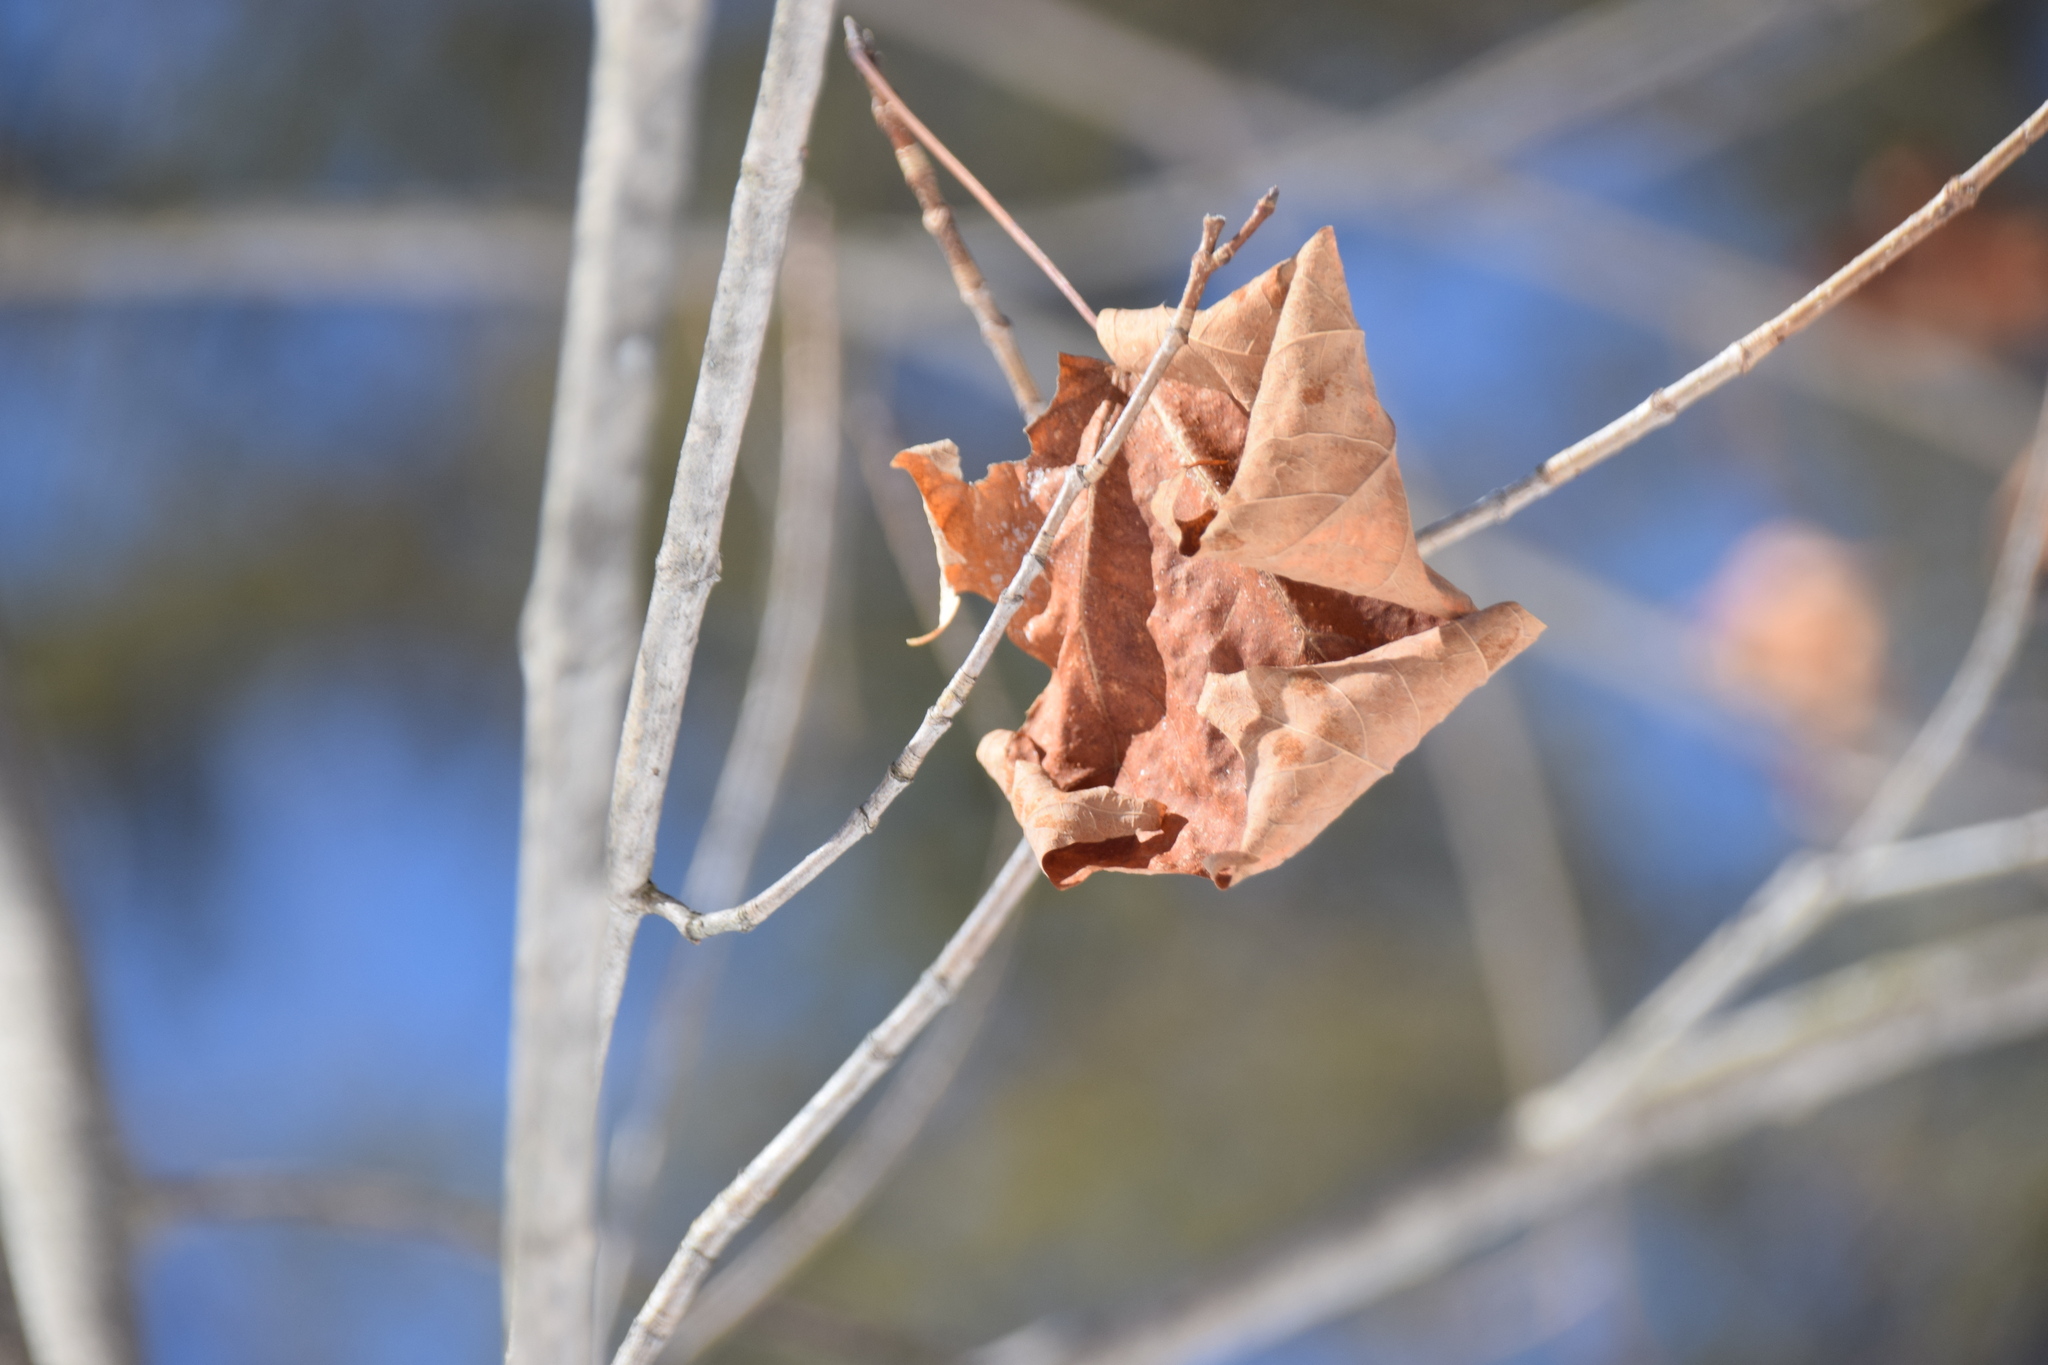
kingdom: Plantae
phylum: Tracheophyta
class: Magnoliopsida
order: Sapindales
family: Sapindaceae
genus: Acer
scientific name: Acer saccharum
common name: Sugar maple
